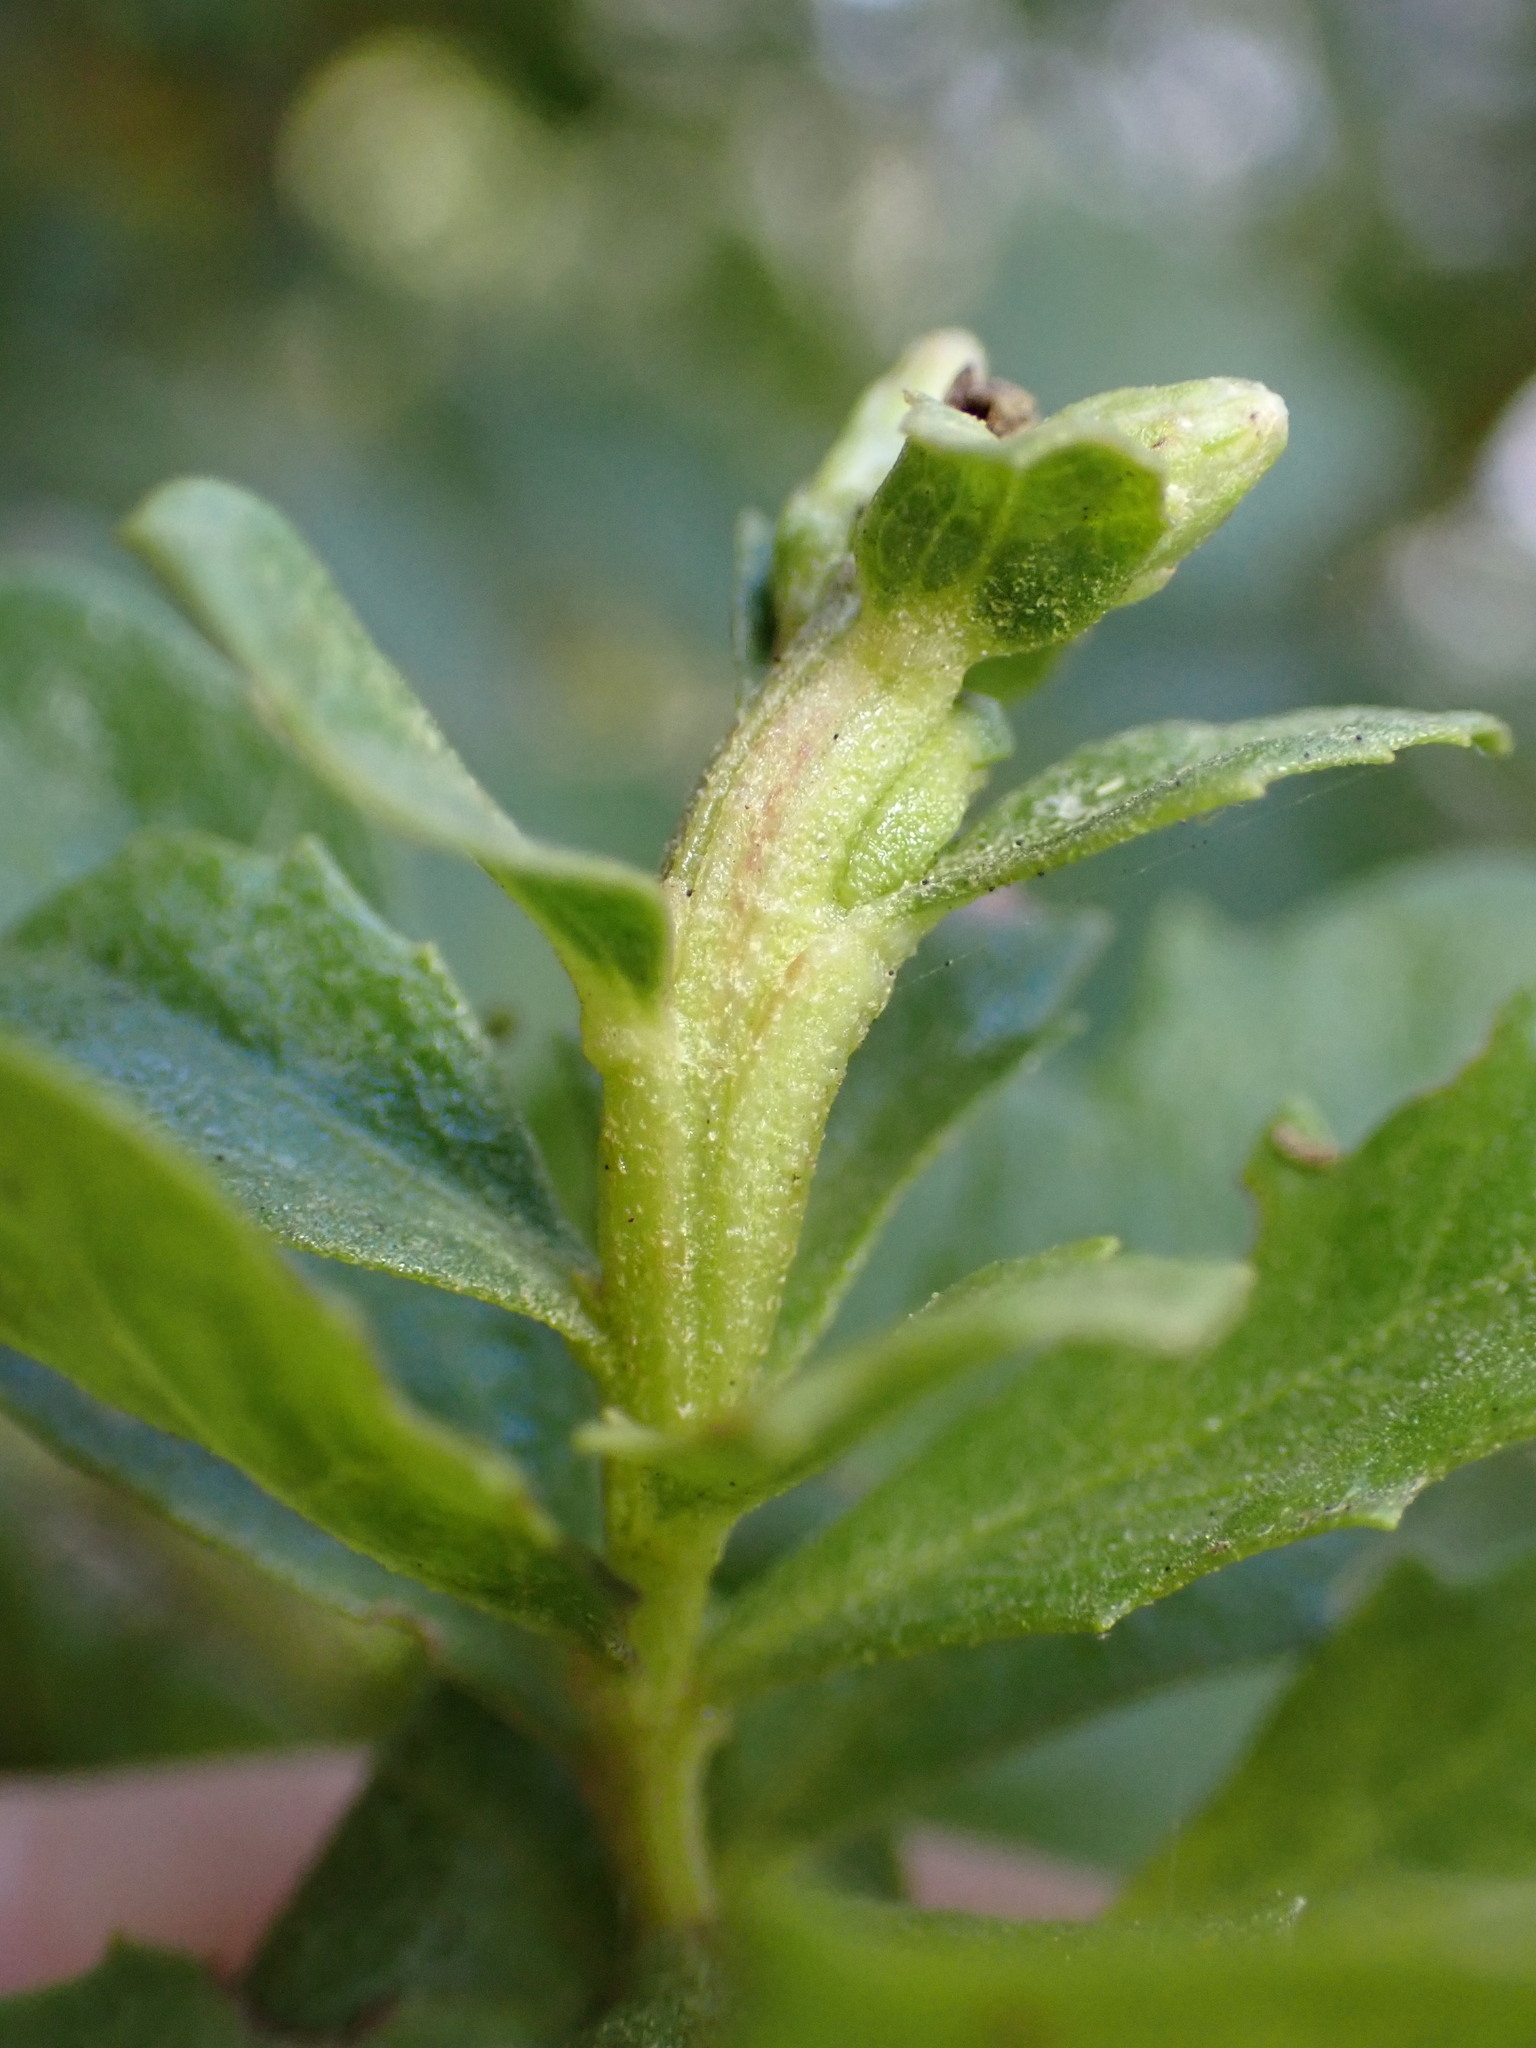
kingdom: Animalia
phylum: Arthropoda
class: Insecta
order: Diptera
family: Cecidomyiidae
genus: Rhopalomyia
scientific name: Rhopalomyia baccharis
